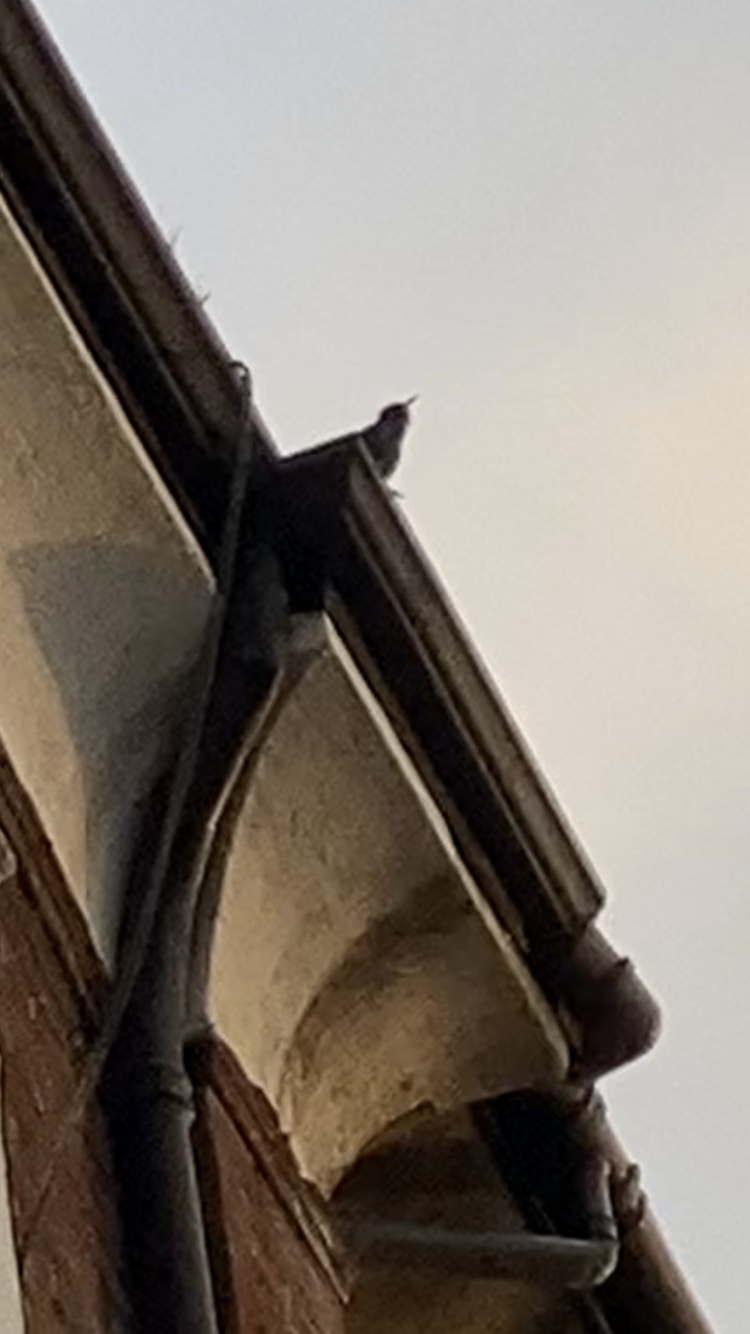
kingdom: Animalia
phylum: Chordata
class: Aves
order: Passeriformes
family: Sturnidae
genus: Sturnus
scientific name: Sturnus vulgaris
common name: Common starling
